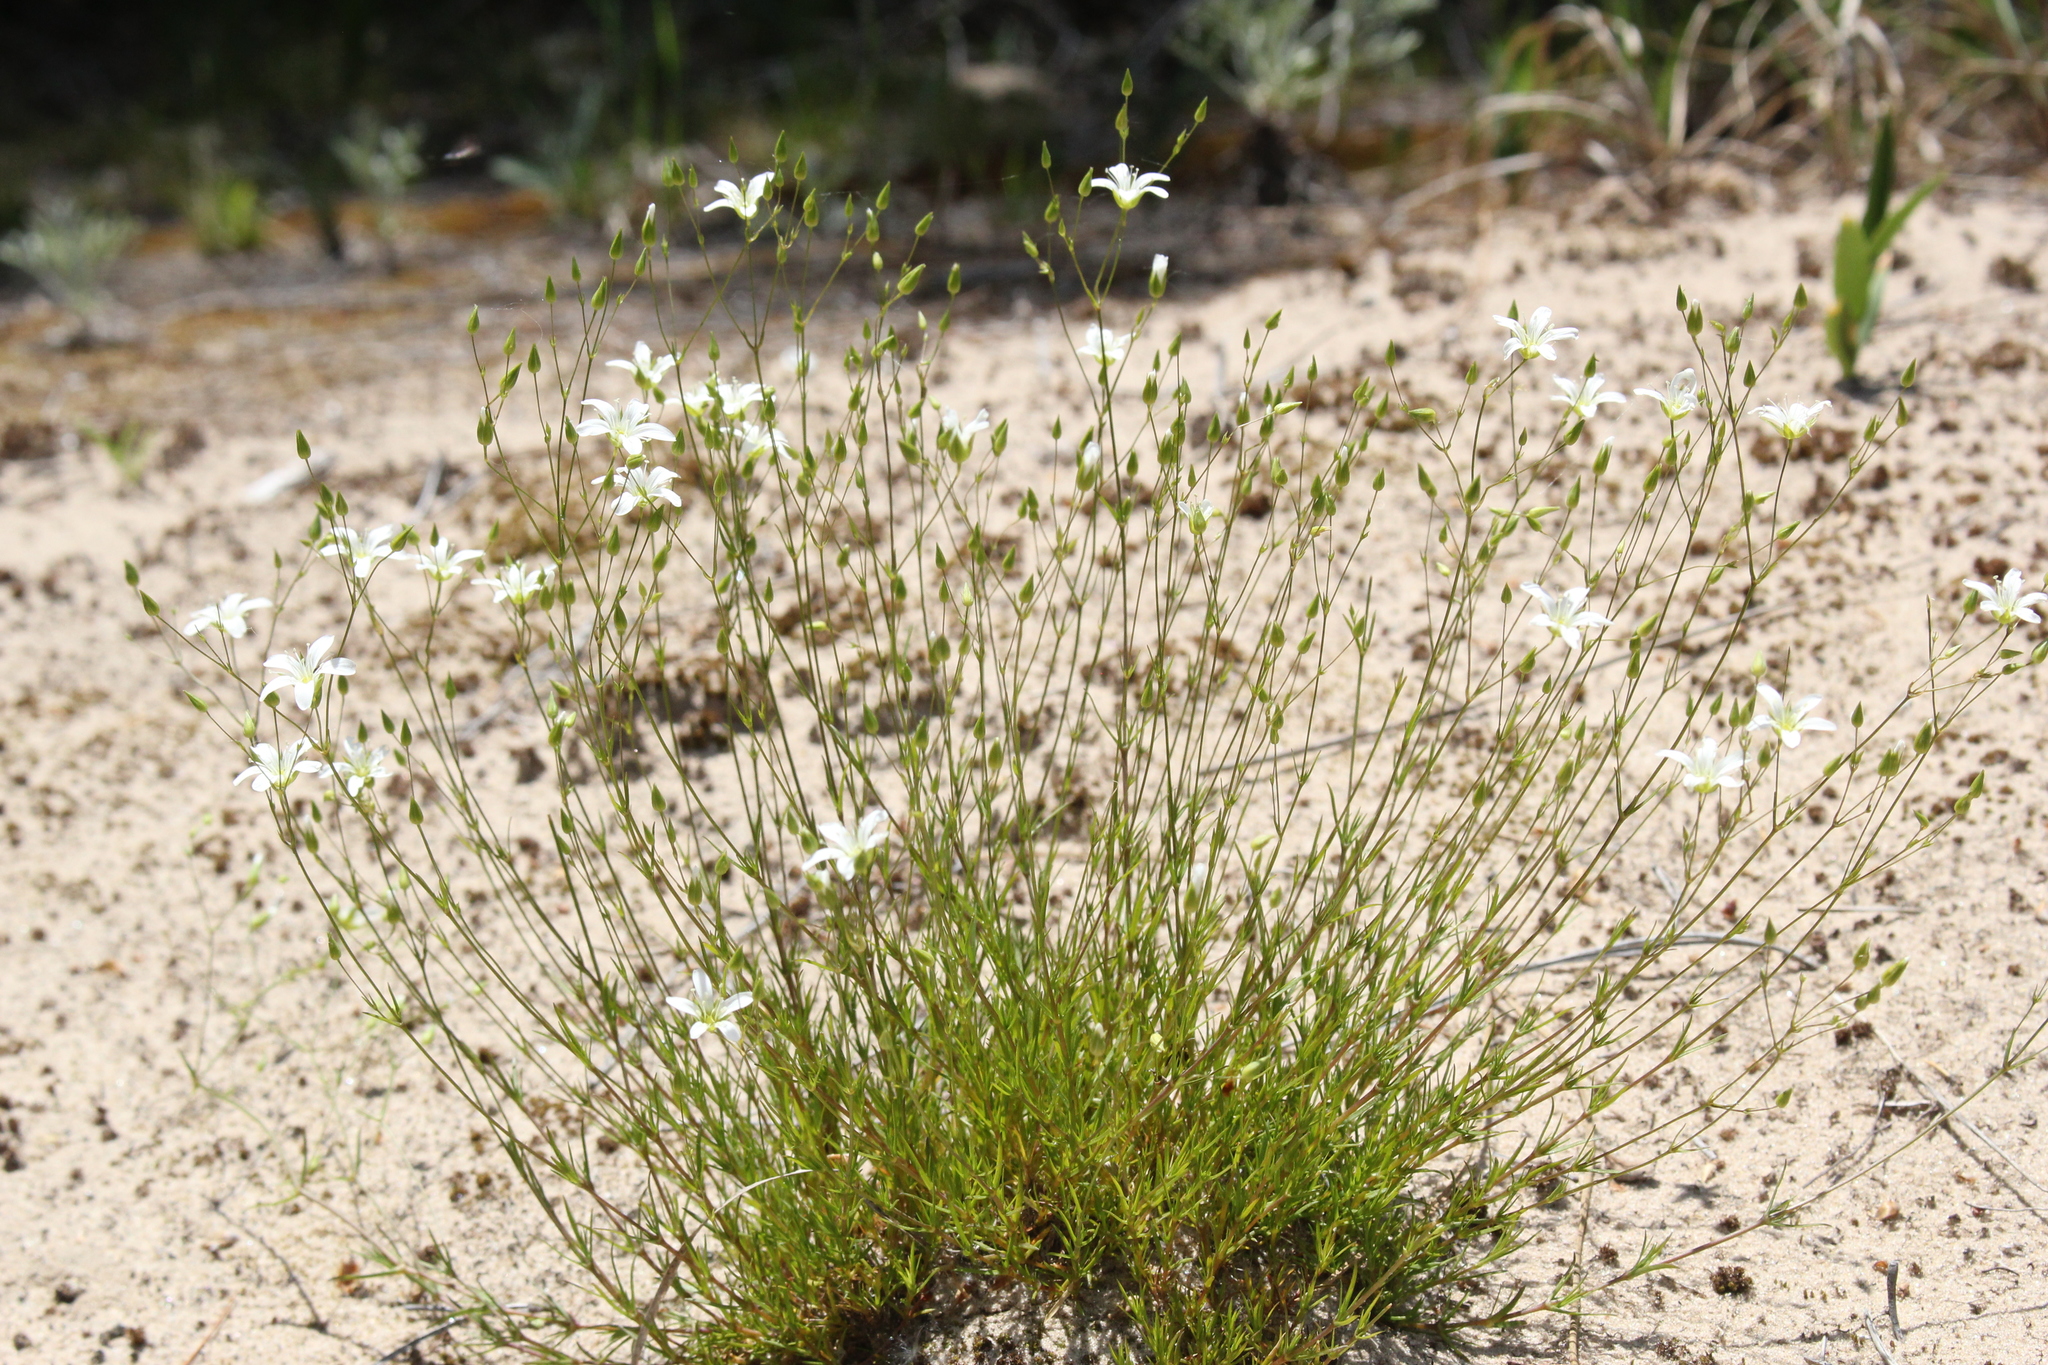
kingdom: Plantae
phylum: Tracheophyta
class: Magnoliopsida
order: Caryophyllales
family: Caryophyllaceae
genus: Sabulina
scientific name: Sabulina michauxii
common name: Michaux's stitchwort
